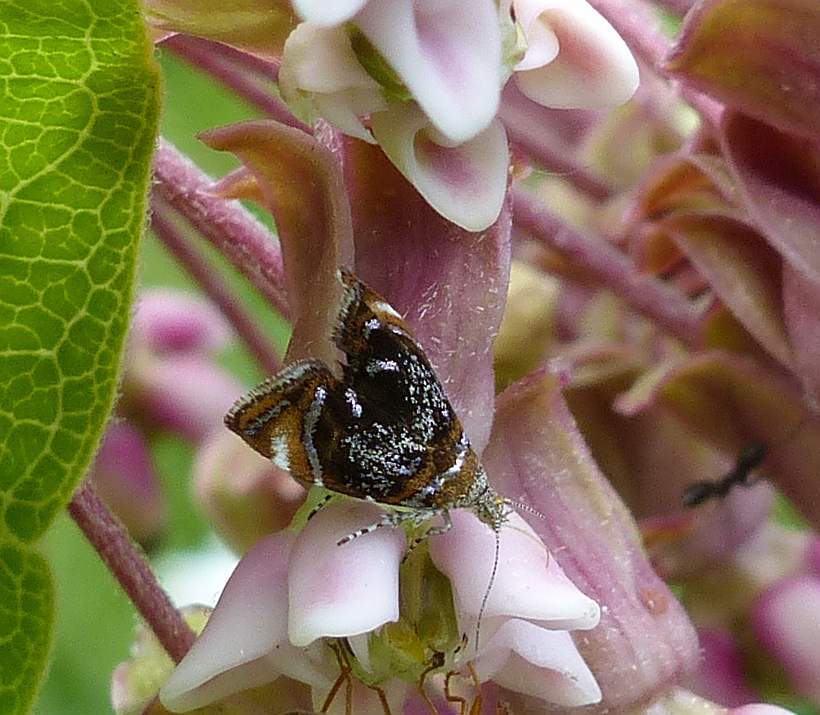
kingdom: Animalia
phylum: Arthropoda
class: Insecta
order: Lepidoptera
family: Choreutidae
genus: Prochoreutis
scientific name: Prochoreutis inflatella
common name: Skullcap skeletonizer moth
